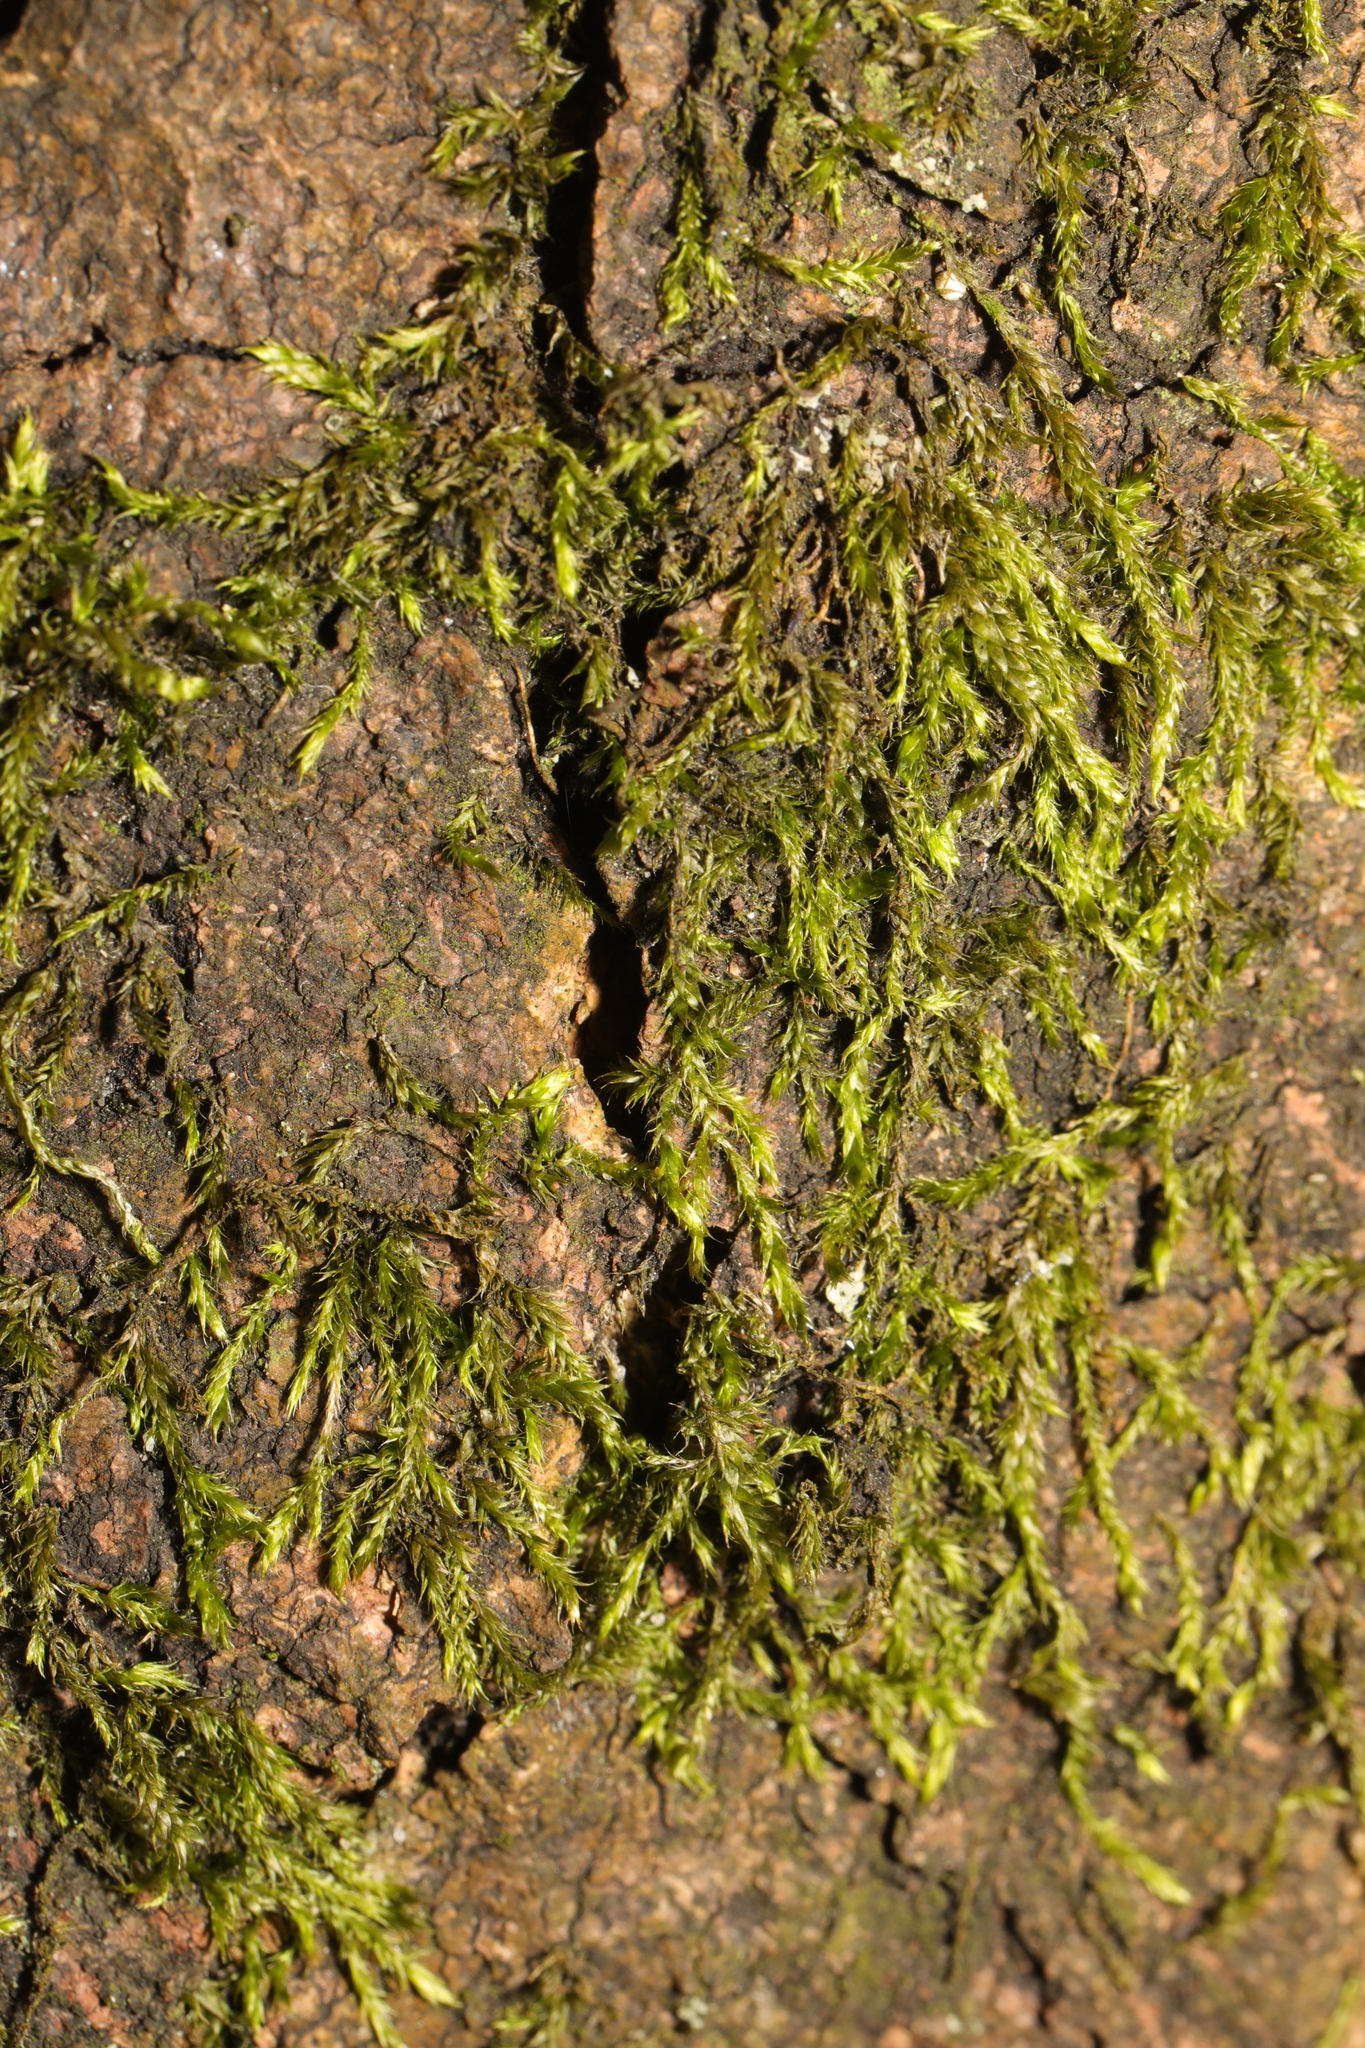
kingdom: Plantae
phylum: Bryophyta
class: Bryopsida
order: Hypnales
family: Hypnaceae
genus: Hypnum
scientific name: Hypnum cupressiforme
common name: Cypress-leaved plait-moss
